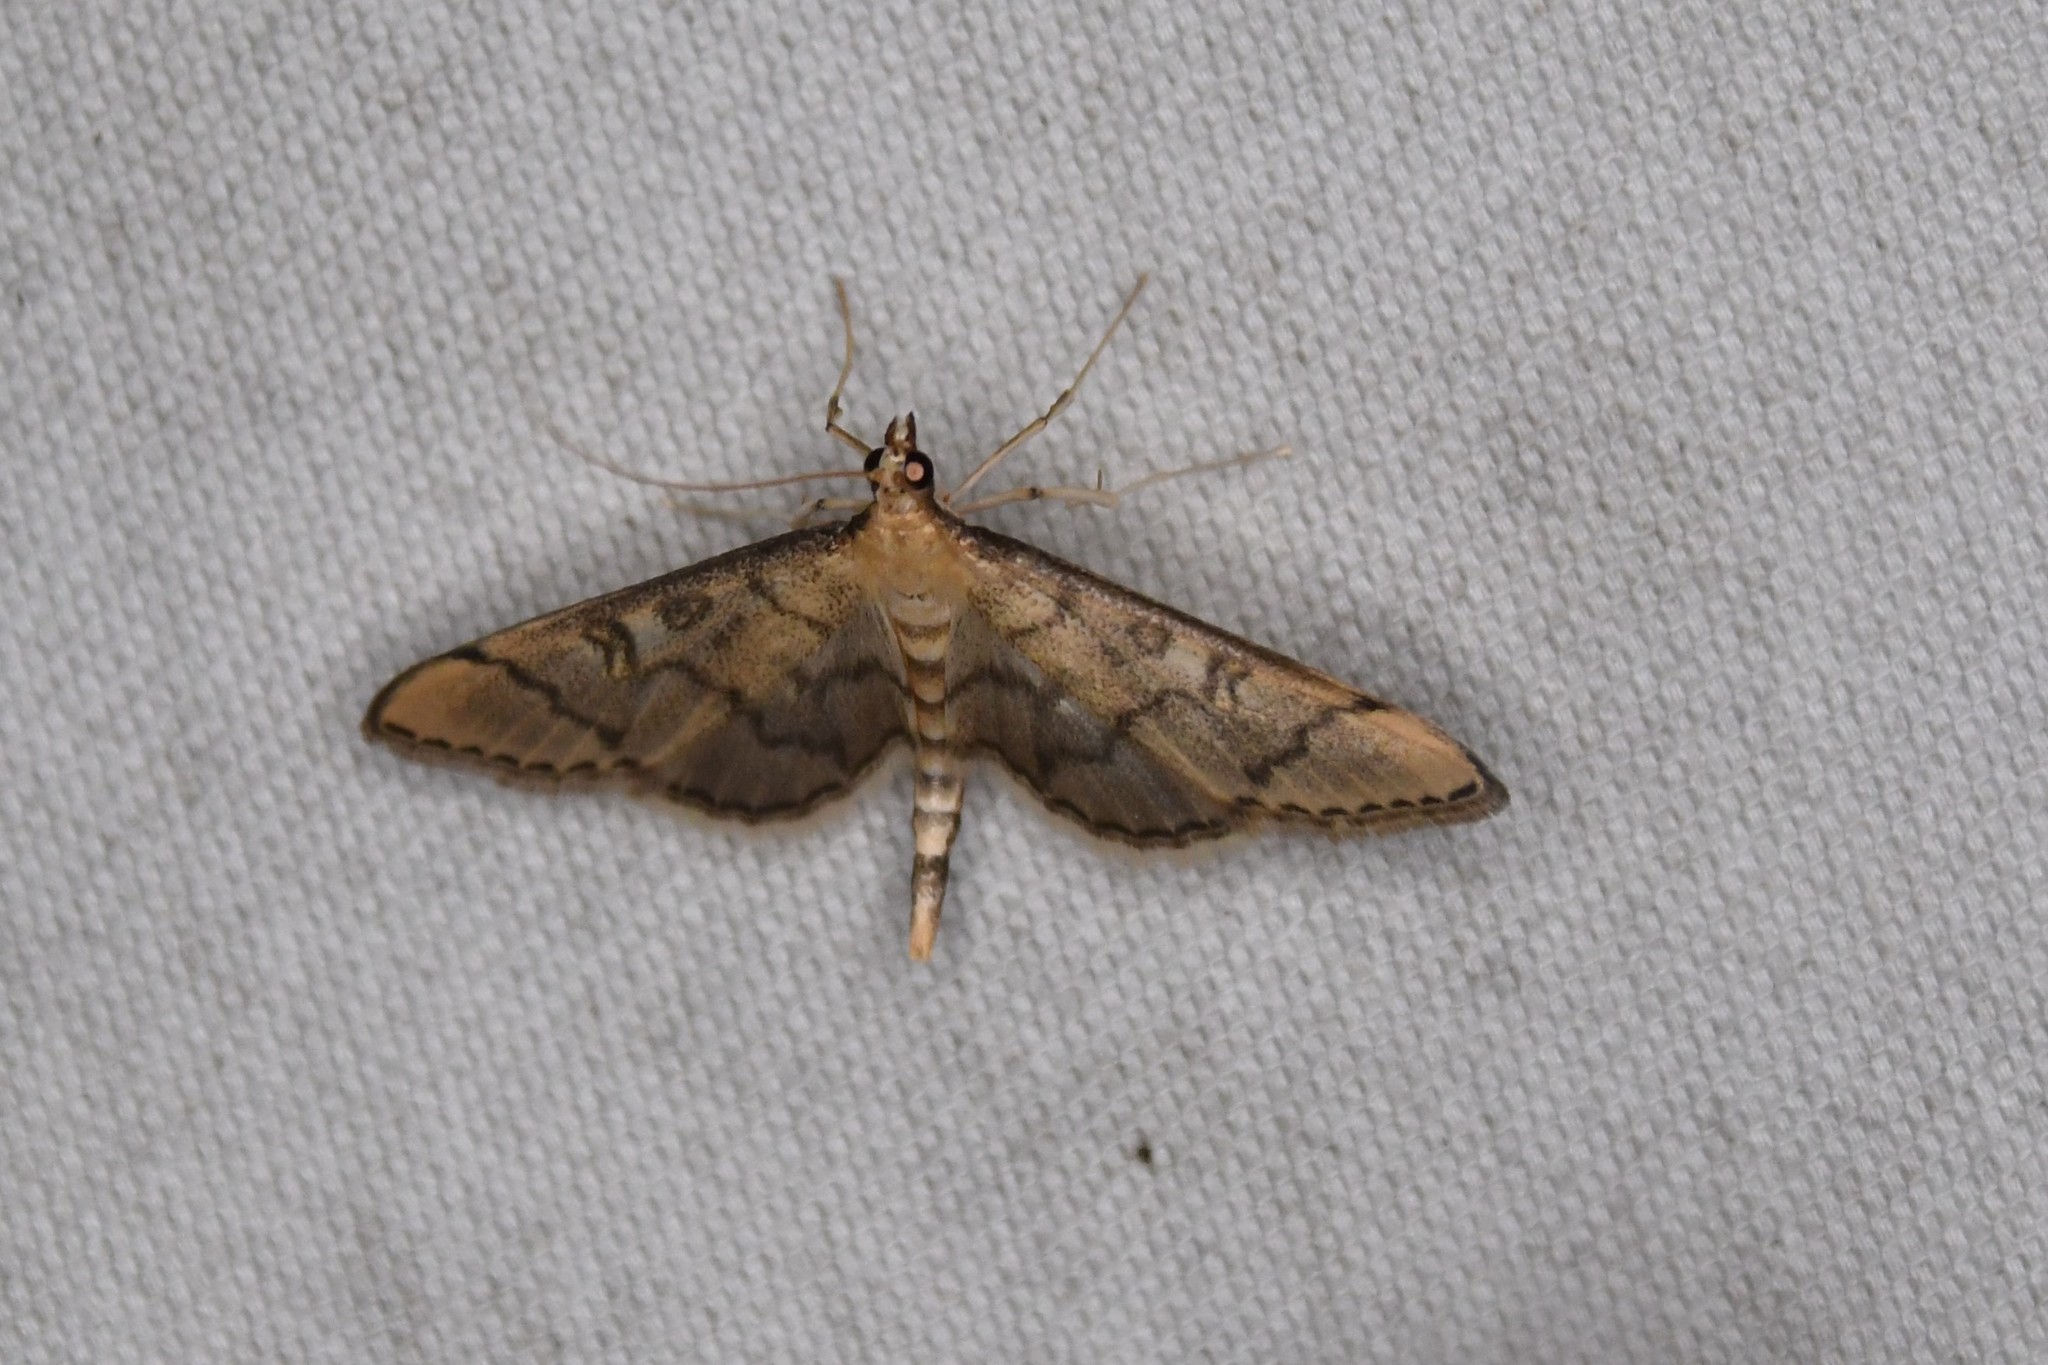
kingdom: Animalia
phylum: Arthropoda
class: Insecta
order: Lepidoptera
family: Crambidae
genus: Lamprosema
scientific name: Lamprosema Blepharomastix ranalis
